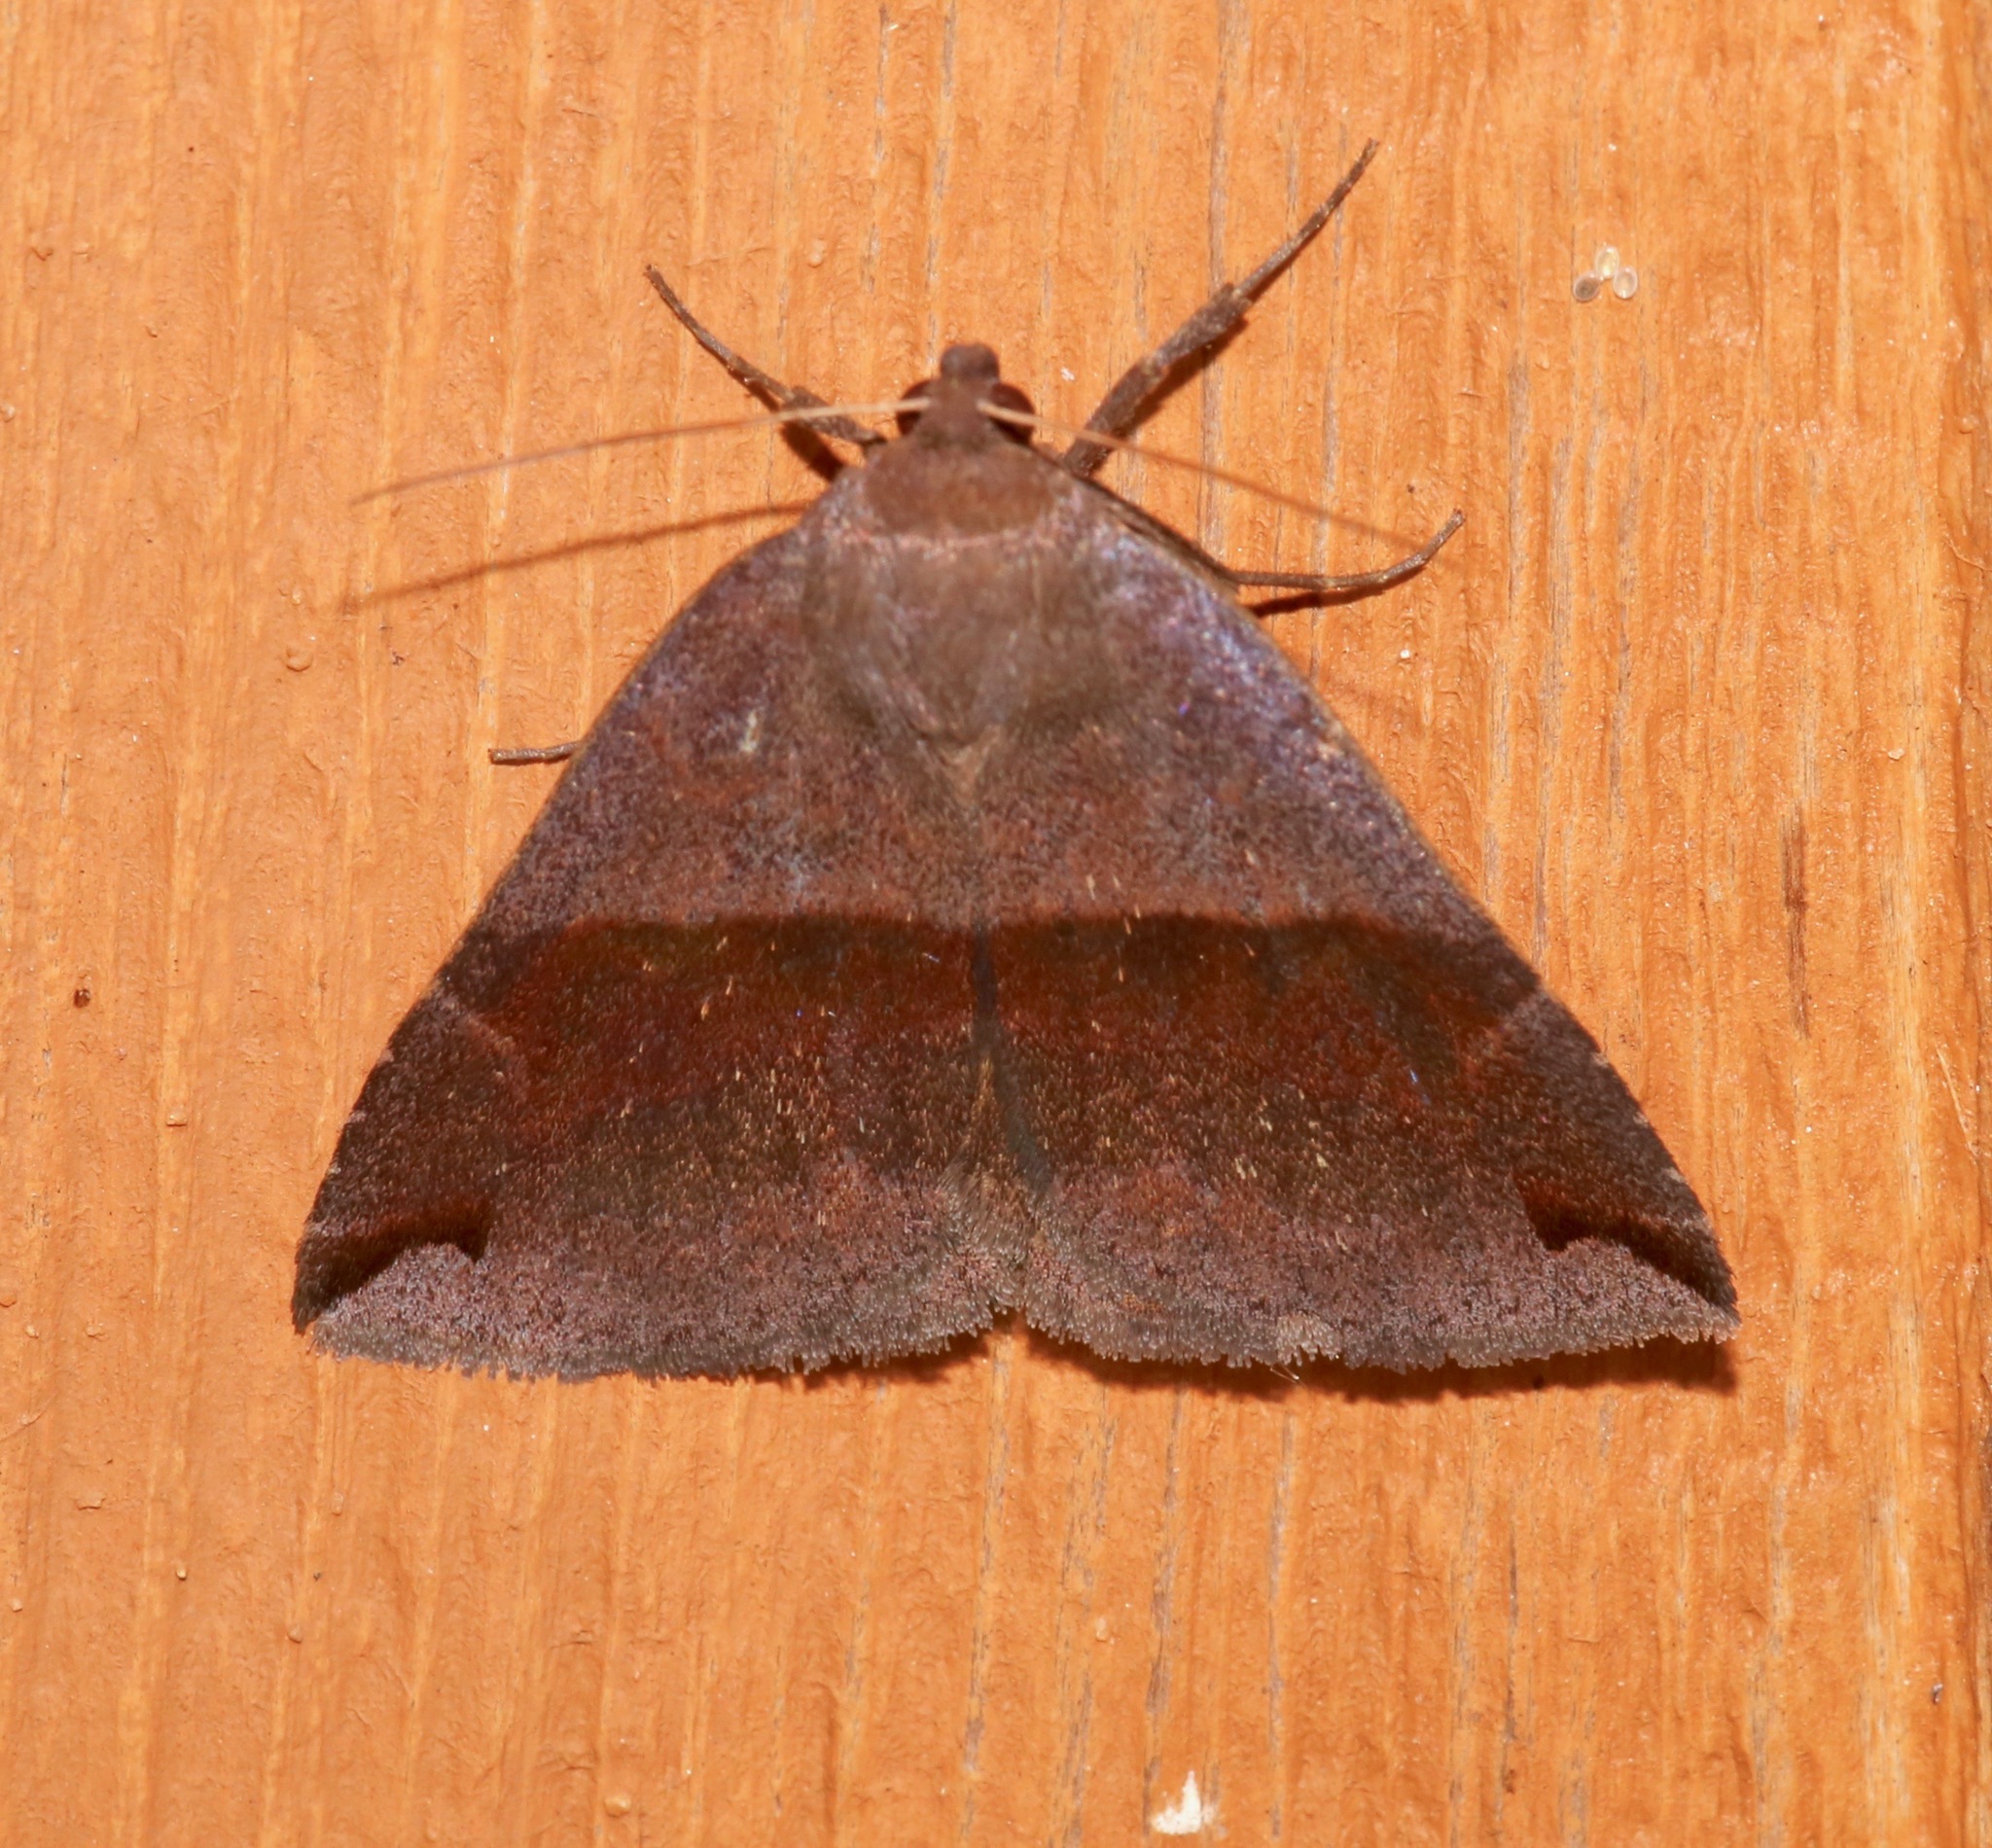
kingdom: Animalia
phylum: Arthropoda
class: Insecta
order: Lepidoptera
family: Erebidae
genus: Gondysia
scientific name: Gondysia similis
